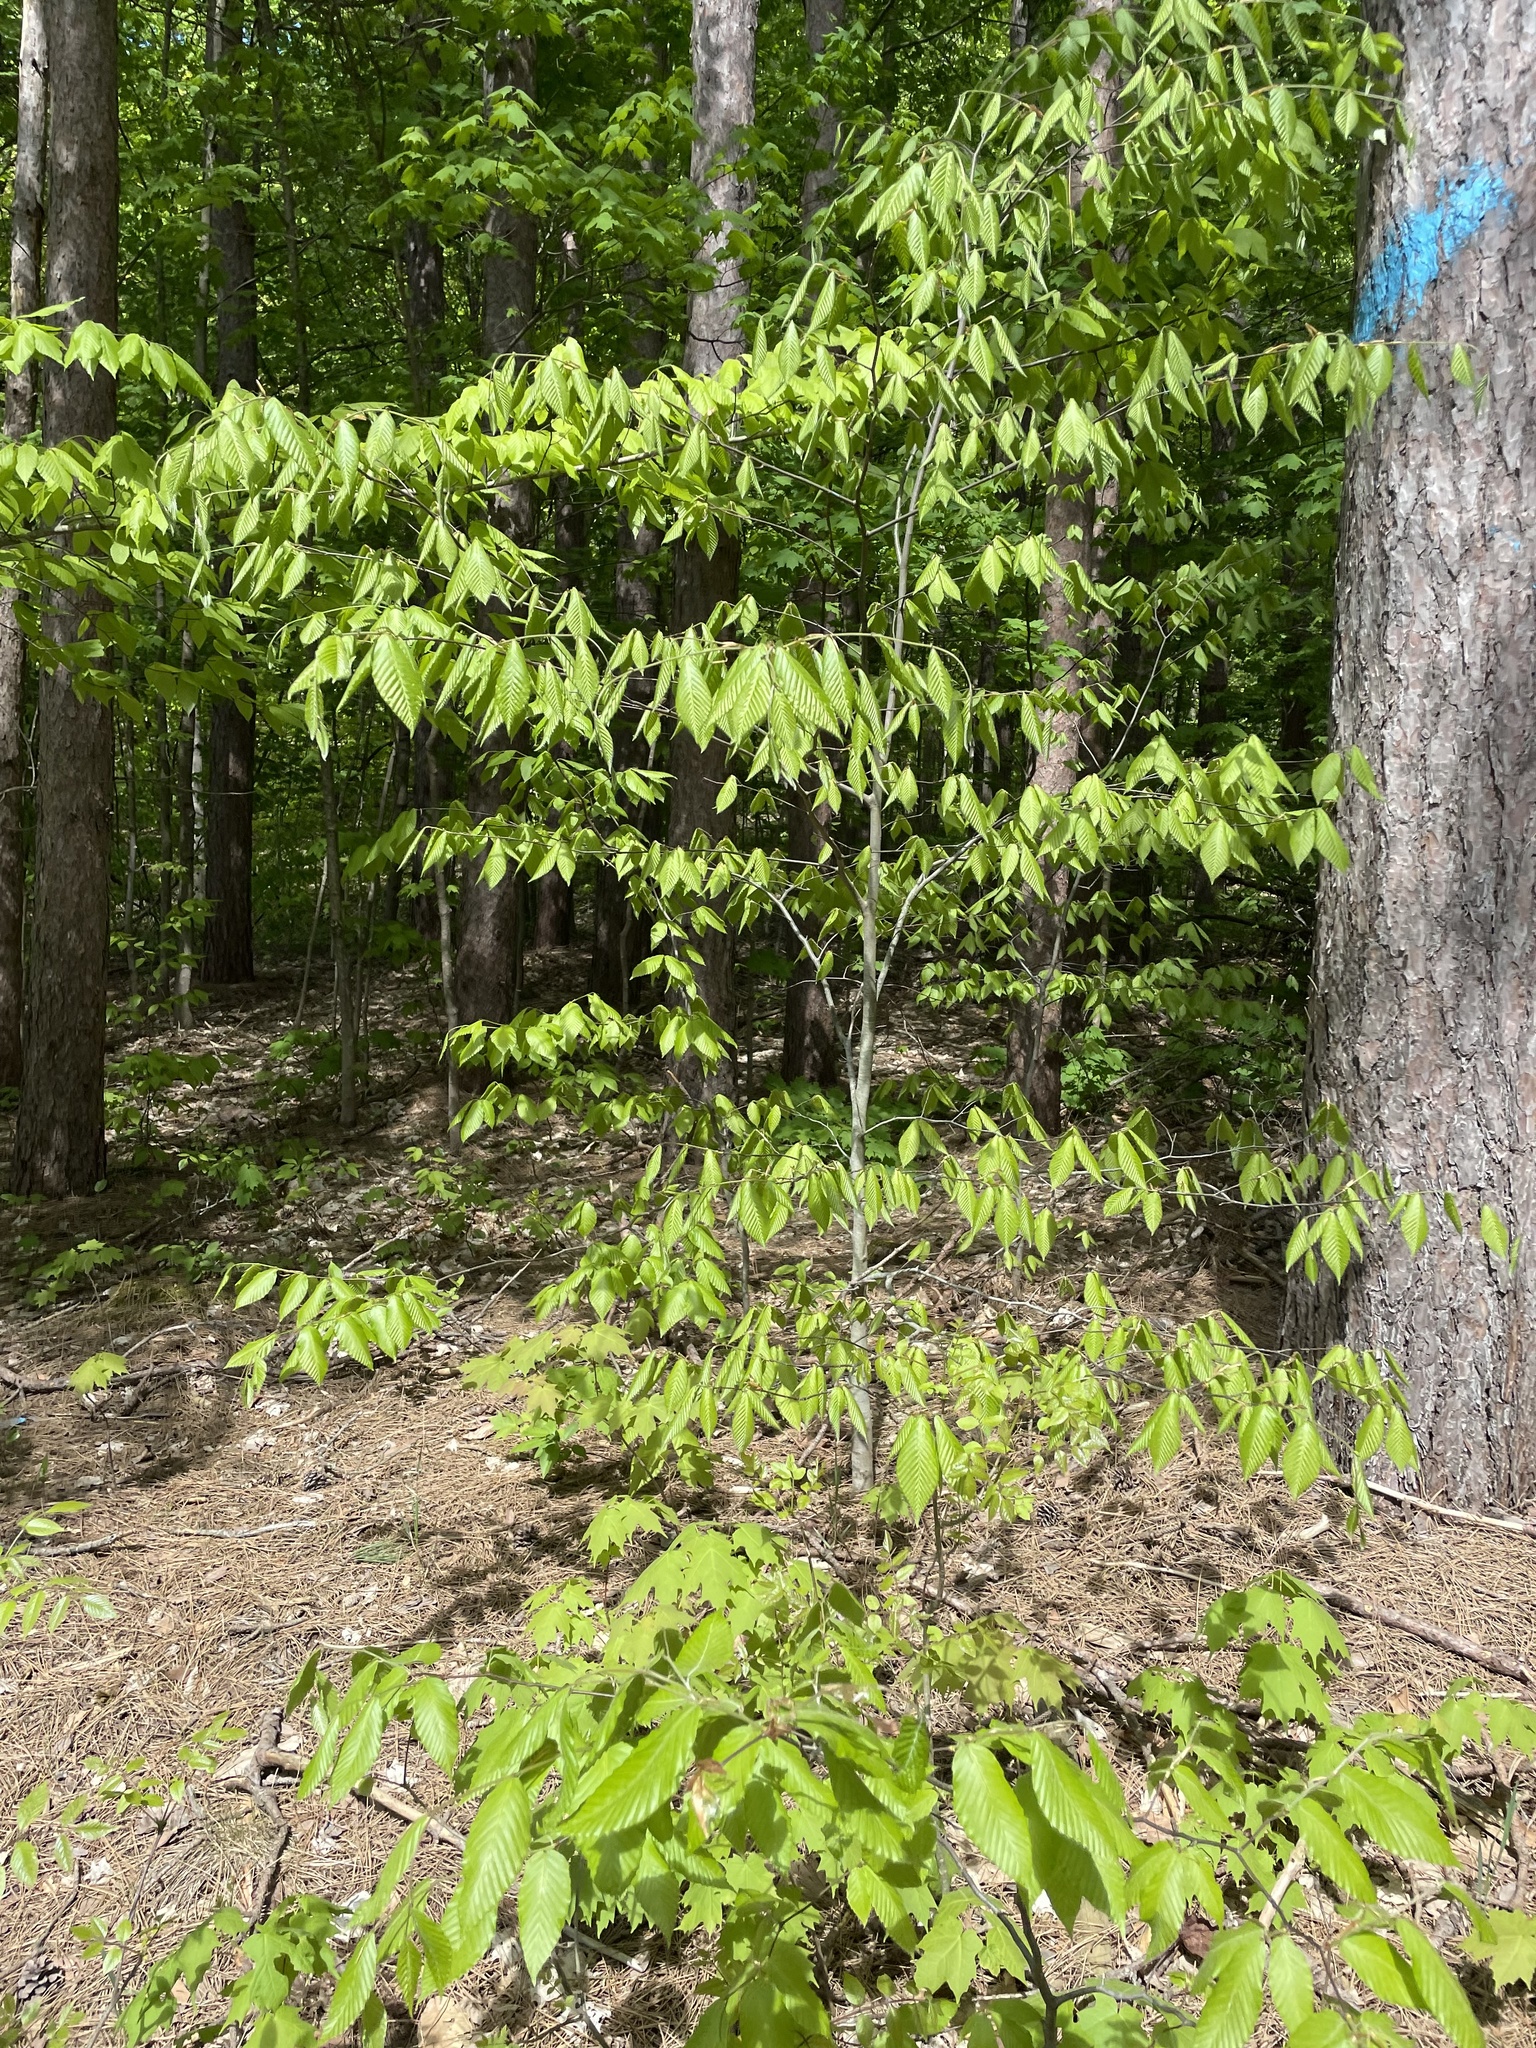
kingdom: Plantae
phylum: Tracheophyta
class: Magnoliopsida
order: Fagales
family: Fagaceae
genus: Fagus
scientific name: Fagus grandifolia
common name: American beech
